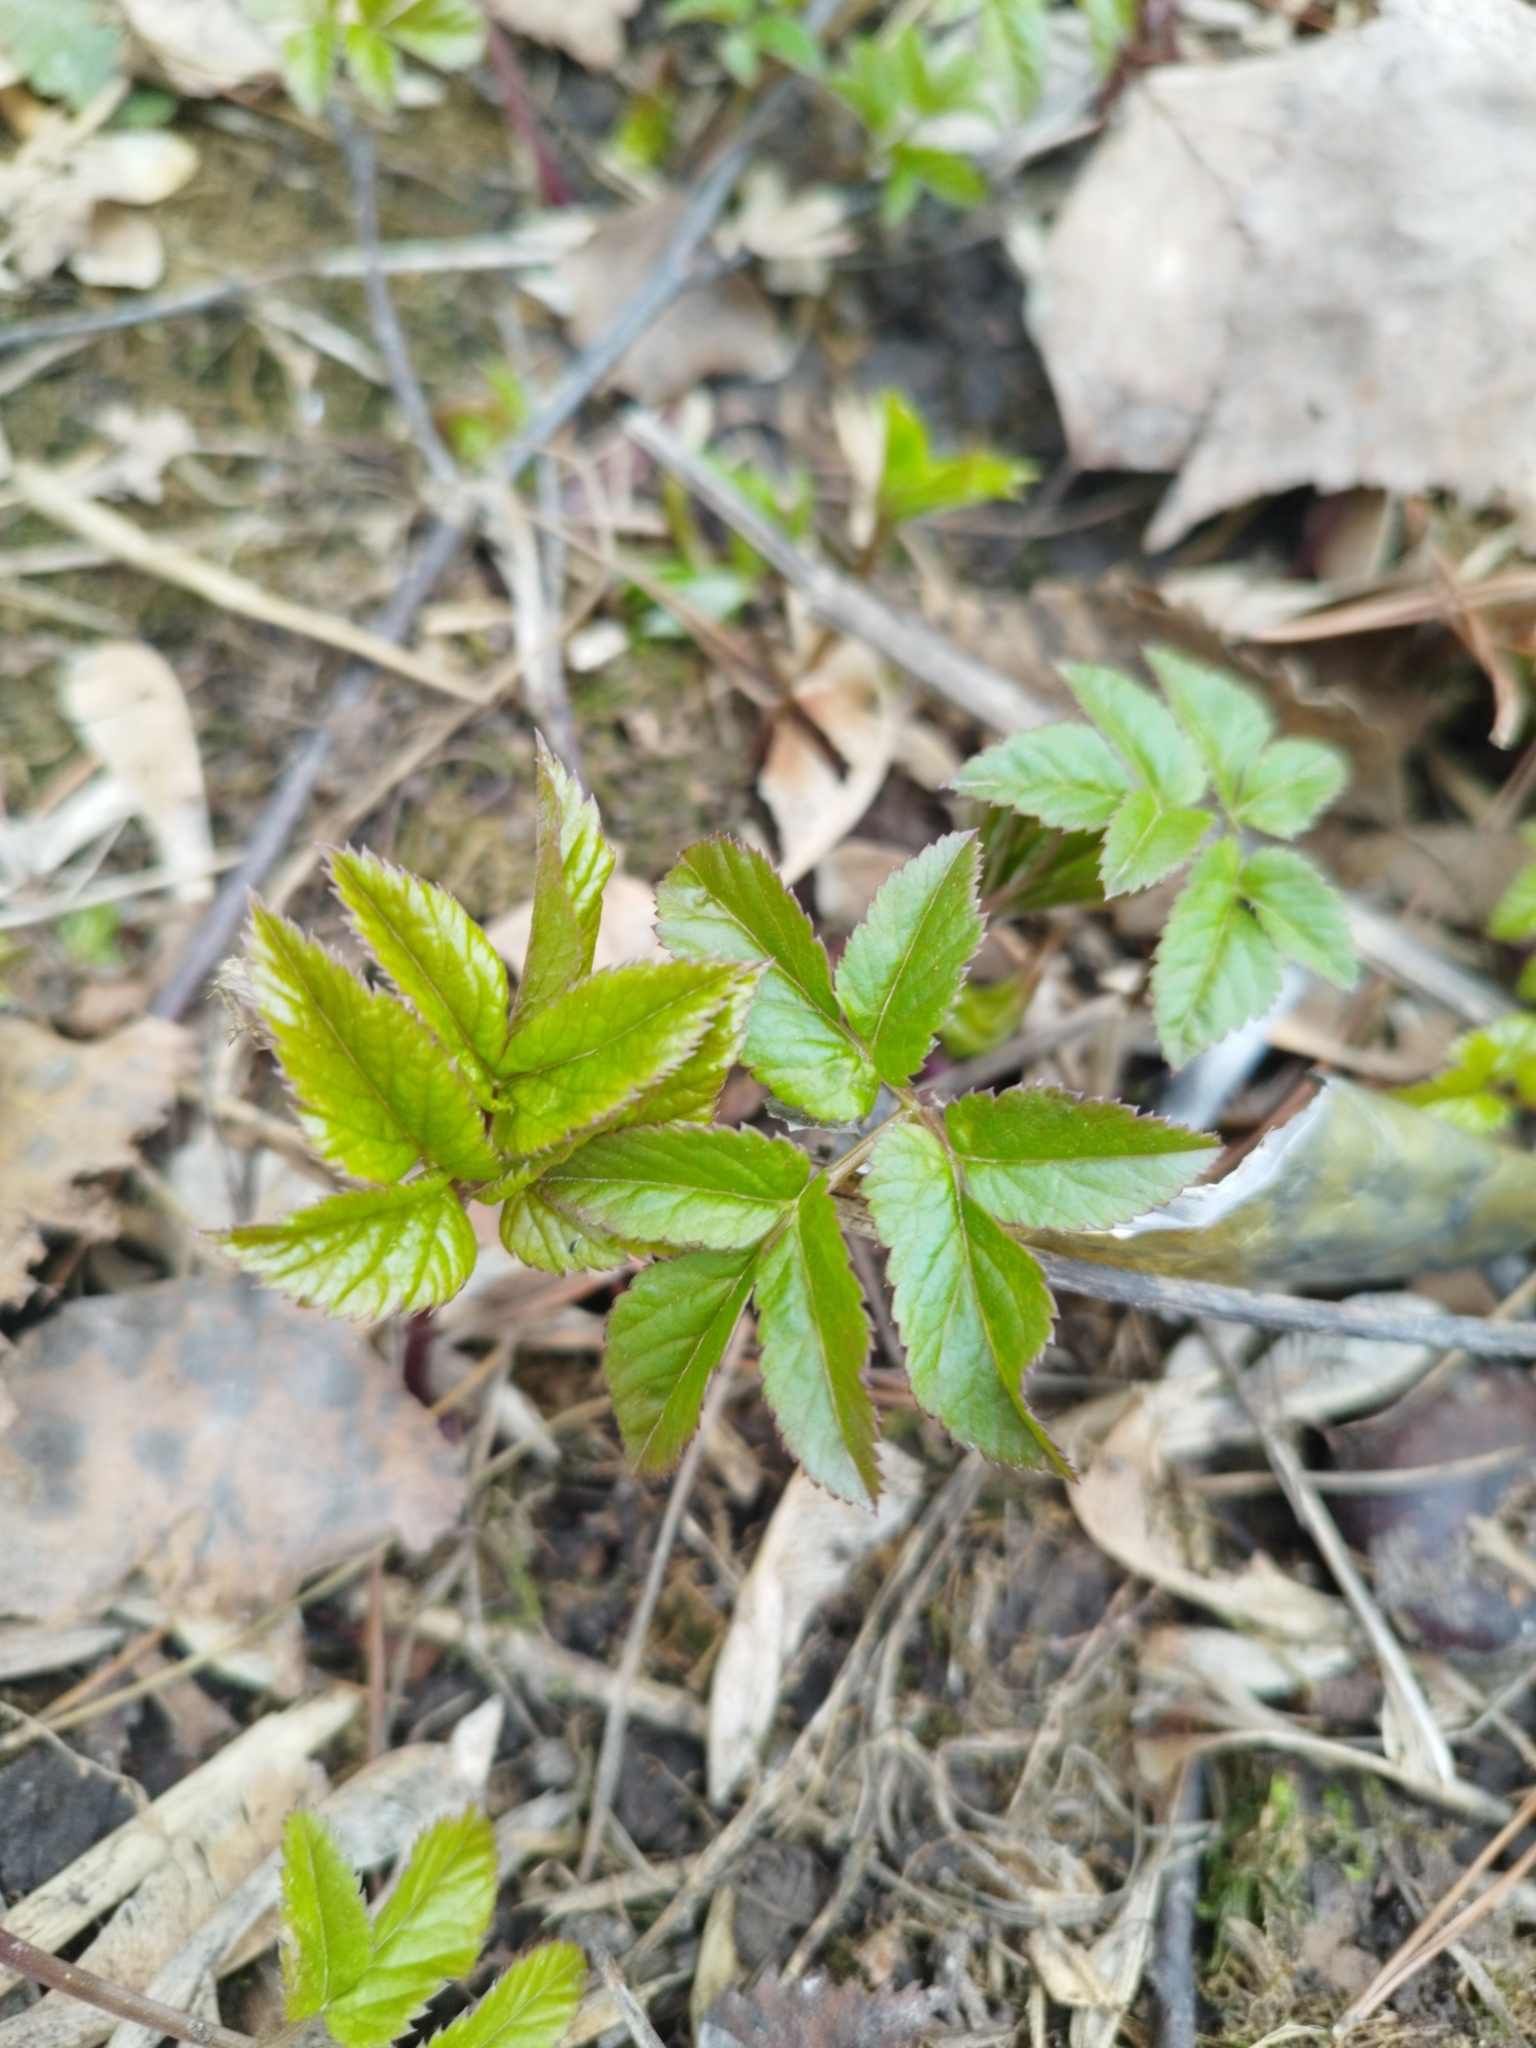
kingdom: Plantae
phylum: Tracheophyta
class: Magnoliopsida
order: Apiales
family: Apiaceae
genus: Aegopodium
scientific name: Aegopodium podagraria
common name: Ground-elder
